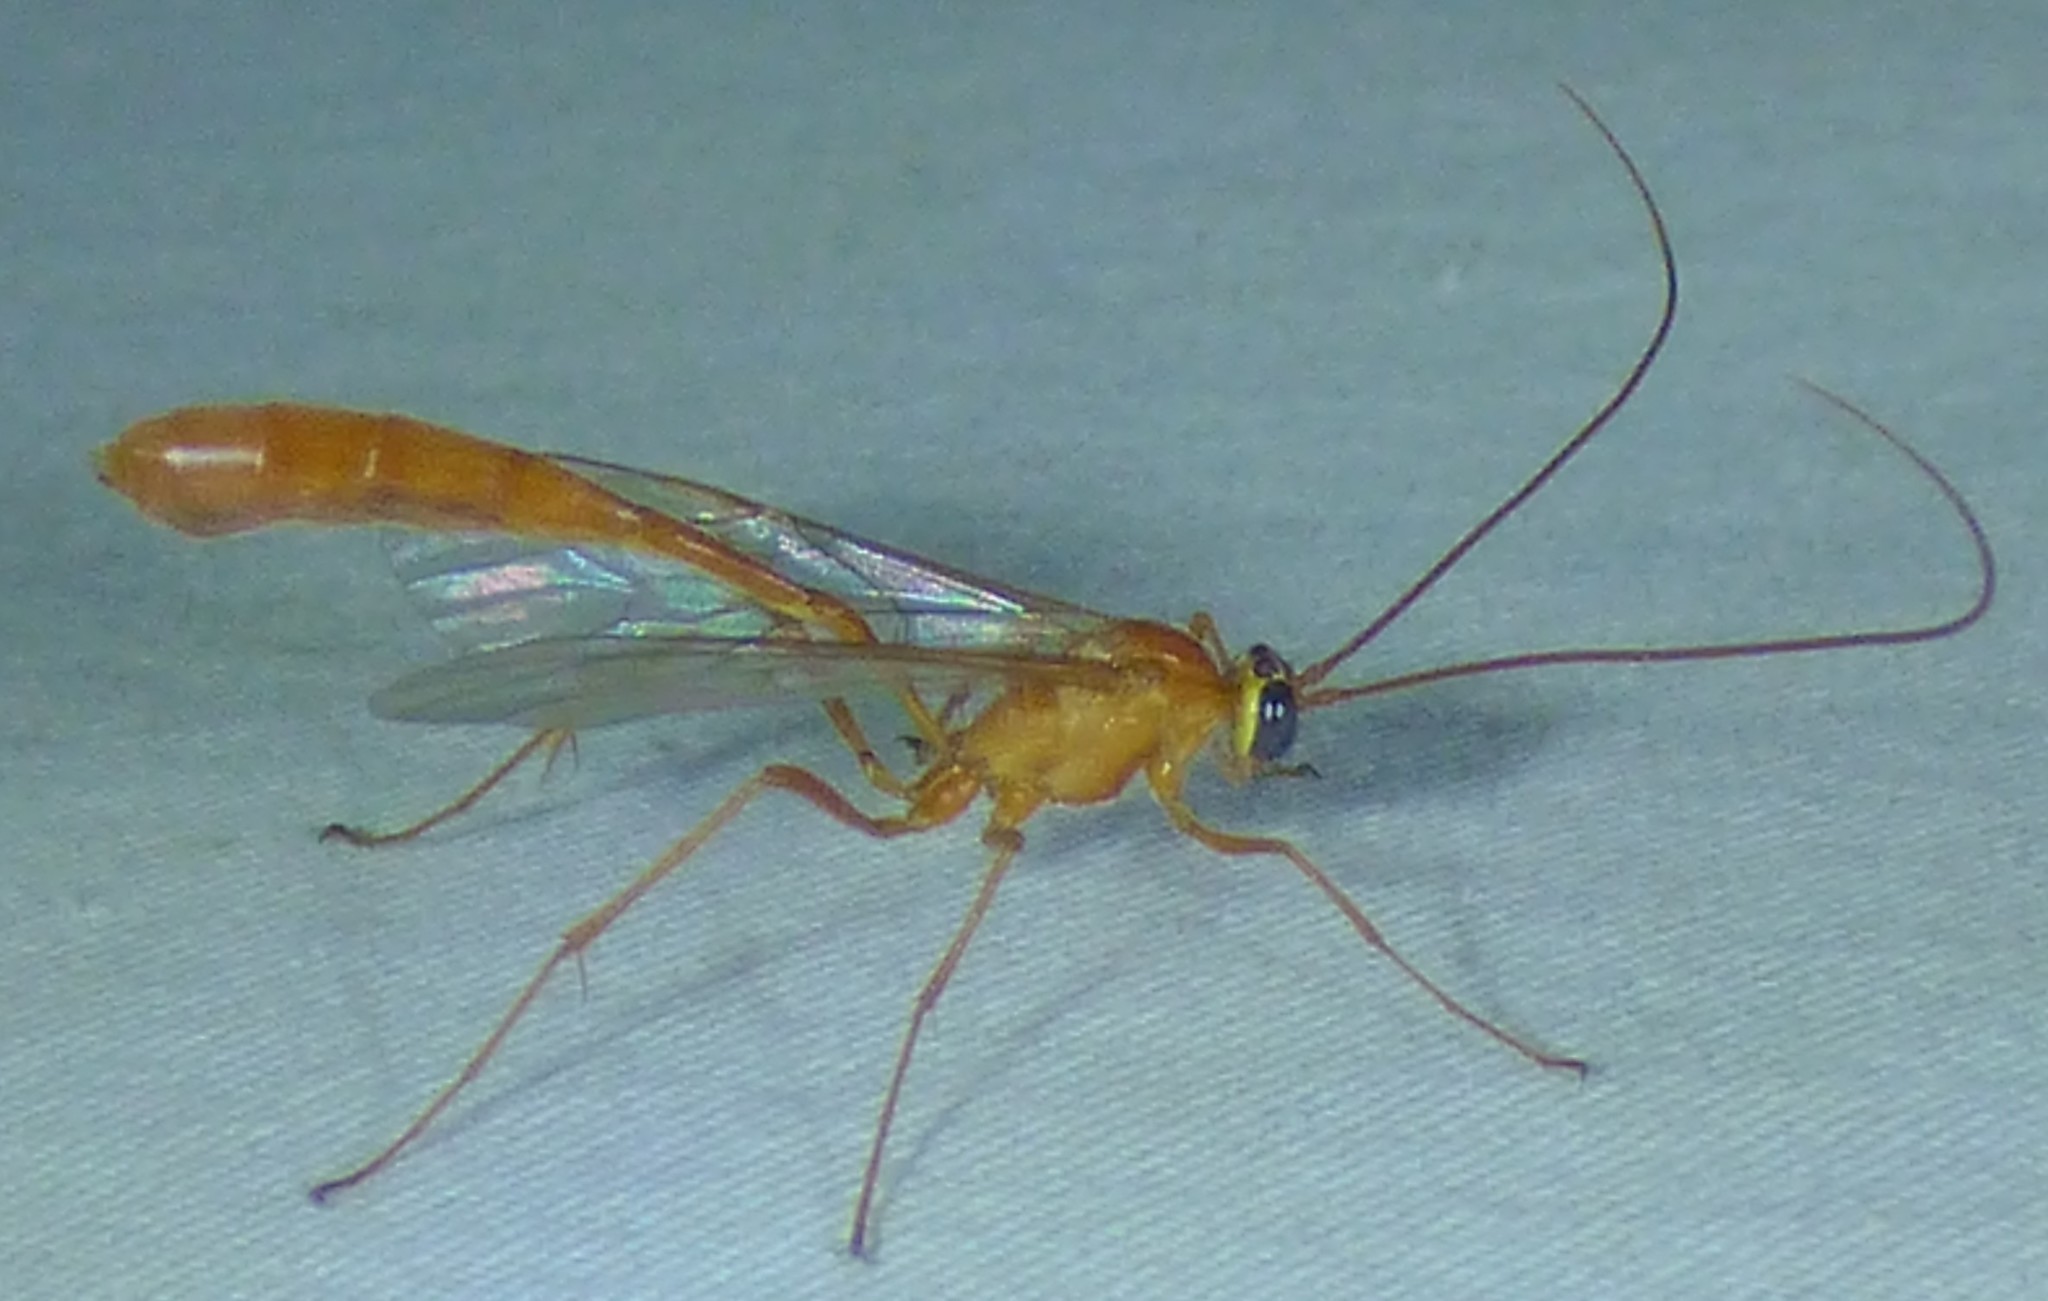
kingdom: Animalia
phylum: Arthropoda
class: Insecta
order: Hymenoptera
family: Ichneumonidae
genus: Enicospilus
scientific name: Enicospilus purgatus
